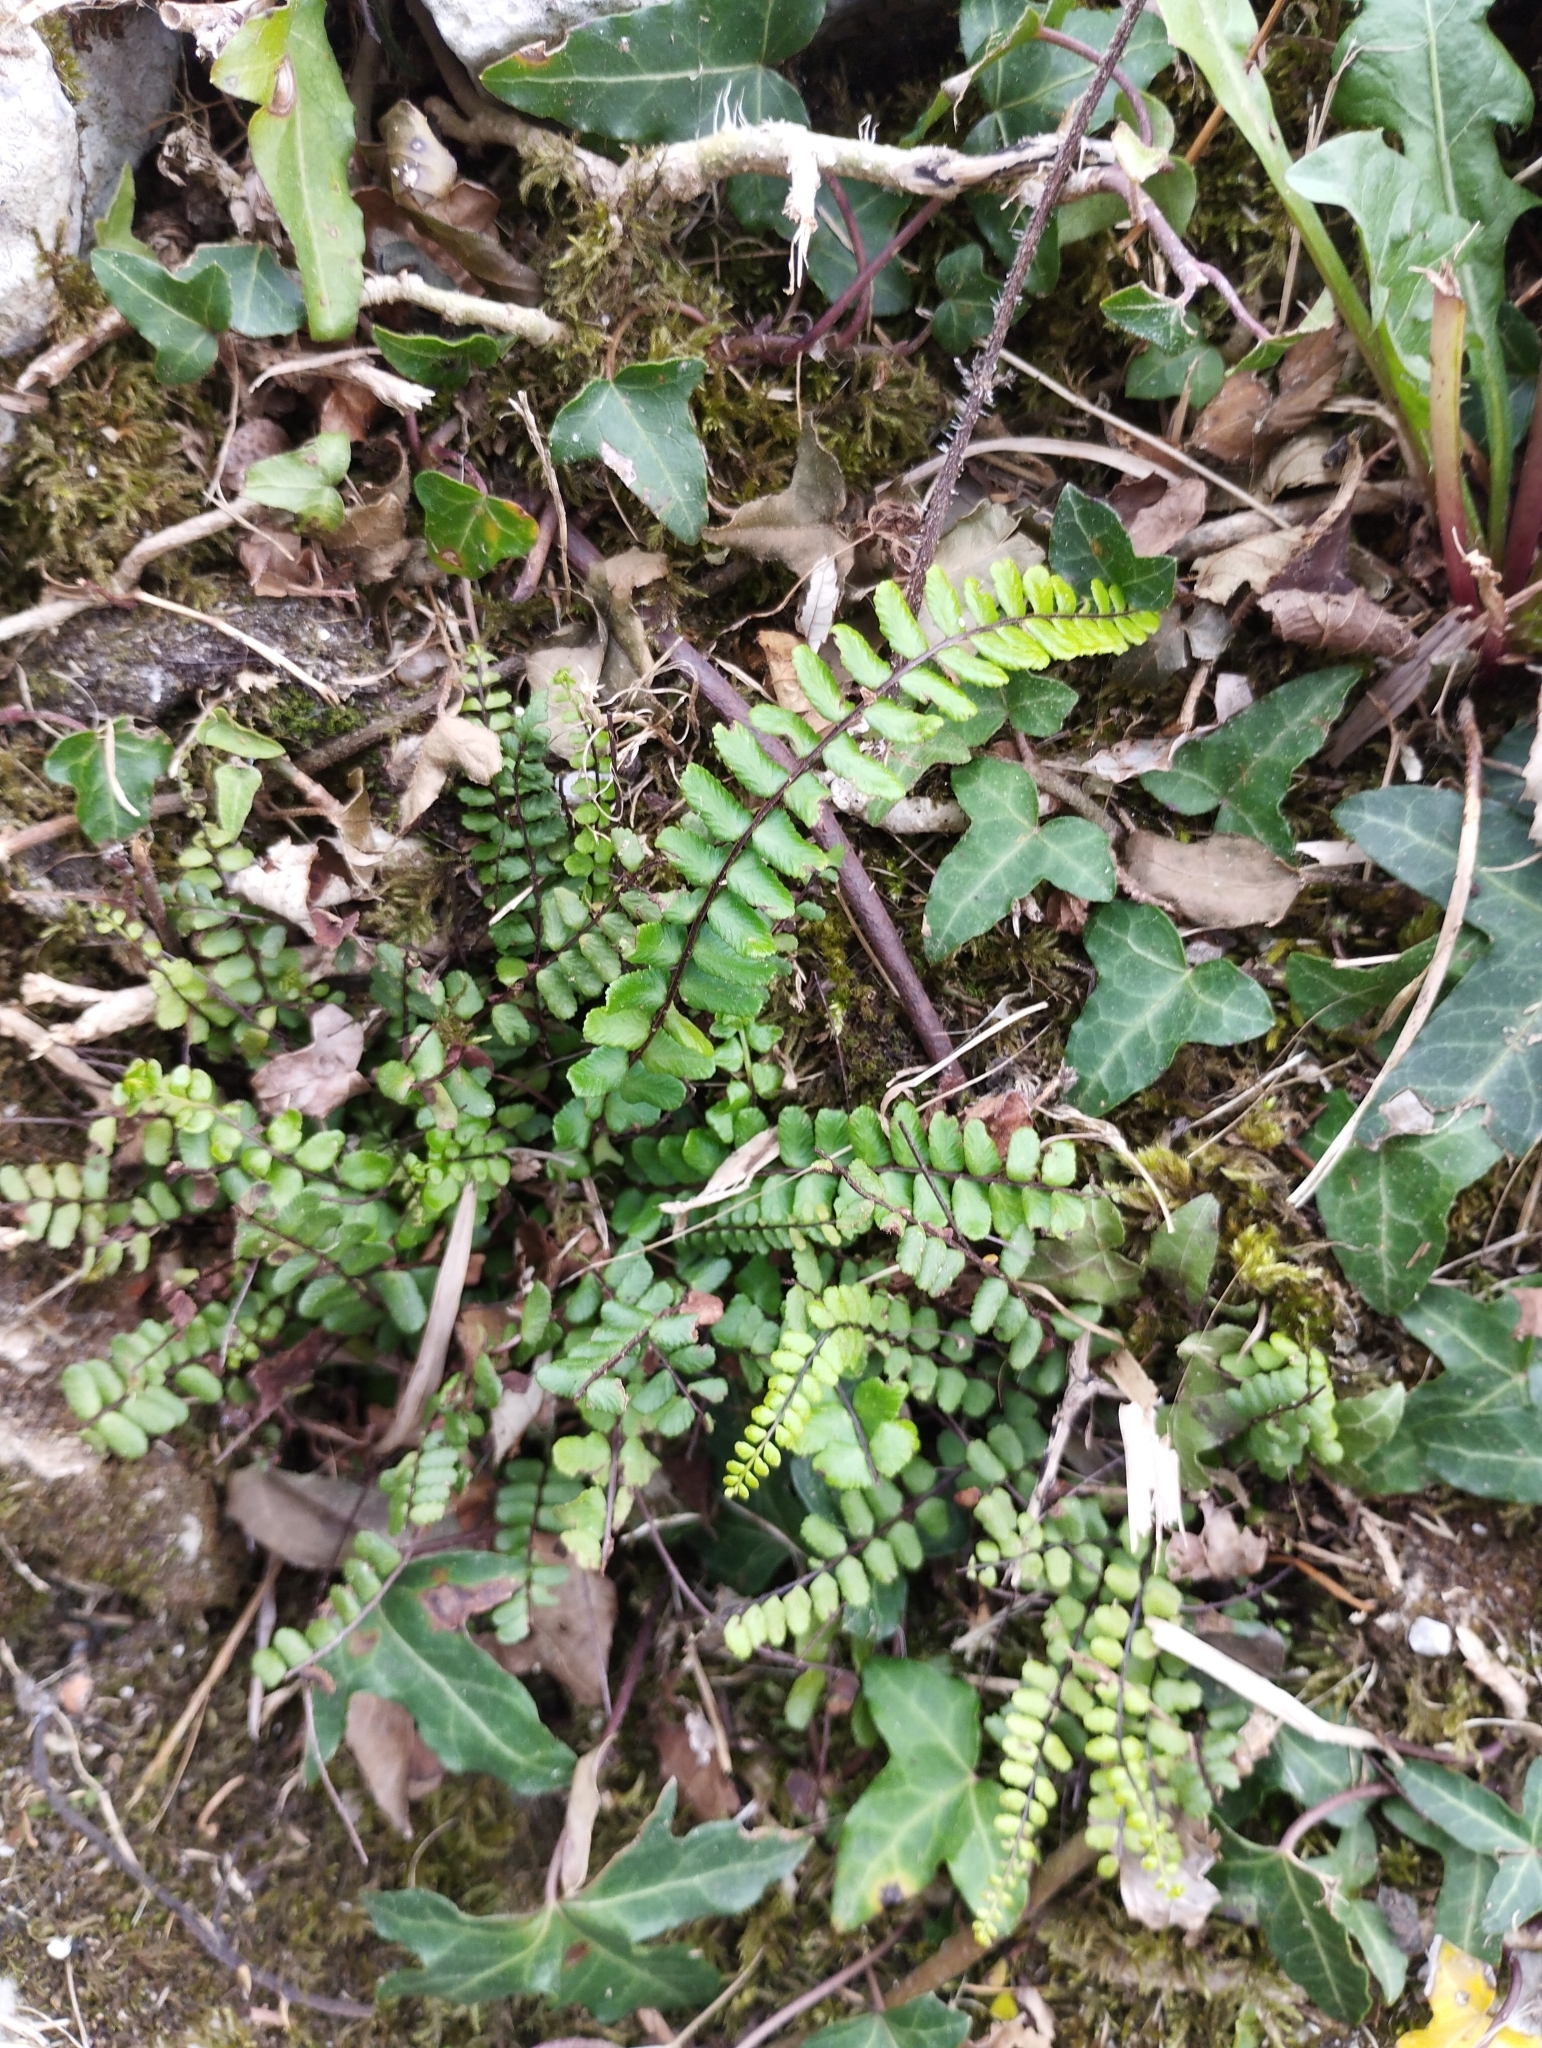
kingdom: Plantae
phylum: Tracheophyta
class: Polypodiopsida
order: Polypodiales
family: Aspleniaceae
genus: Asplenium
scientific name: Asplenium trichomanes
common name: Maidenhair spleenwort
